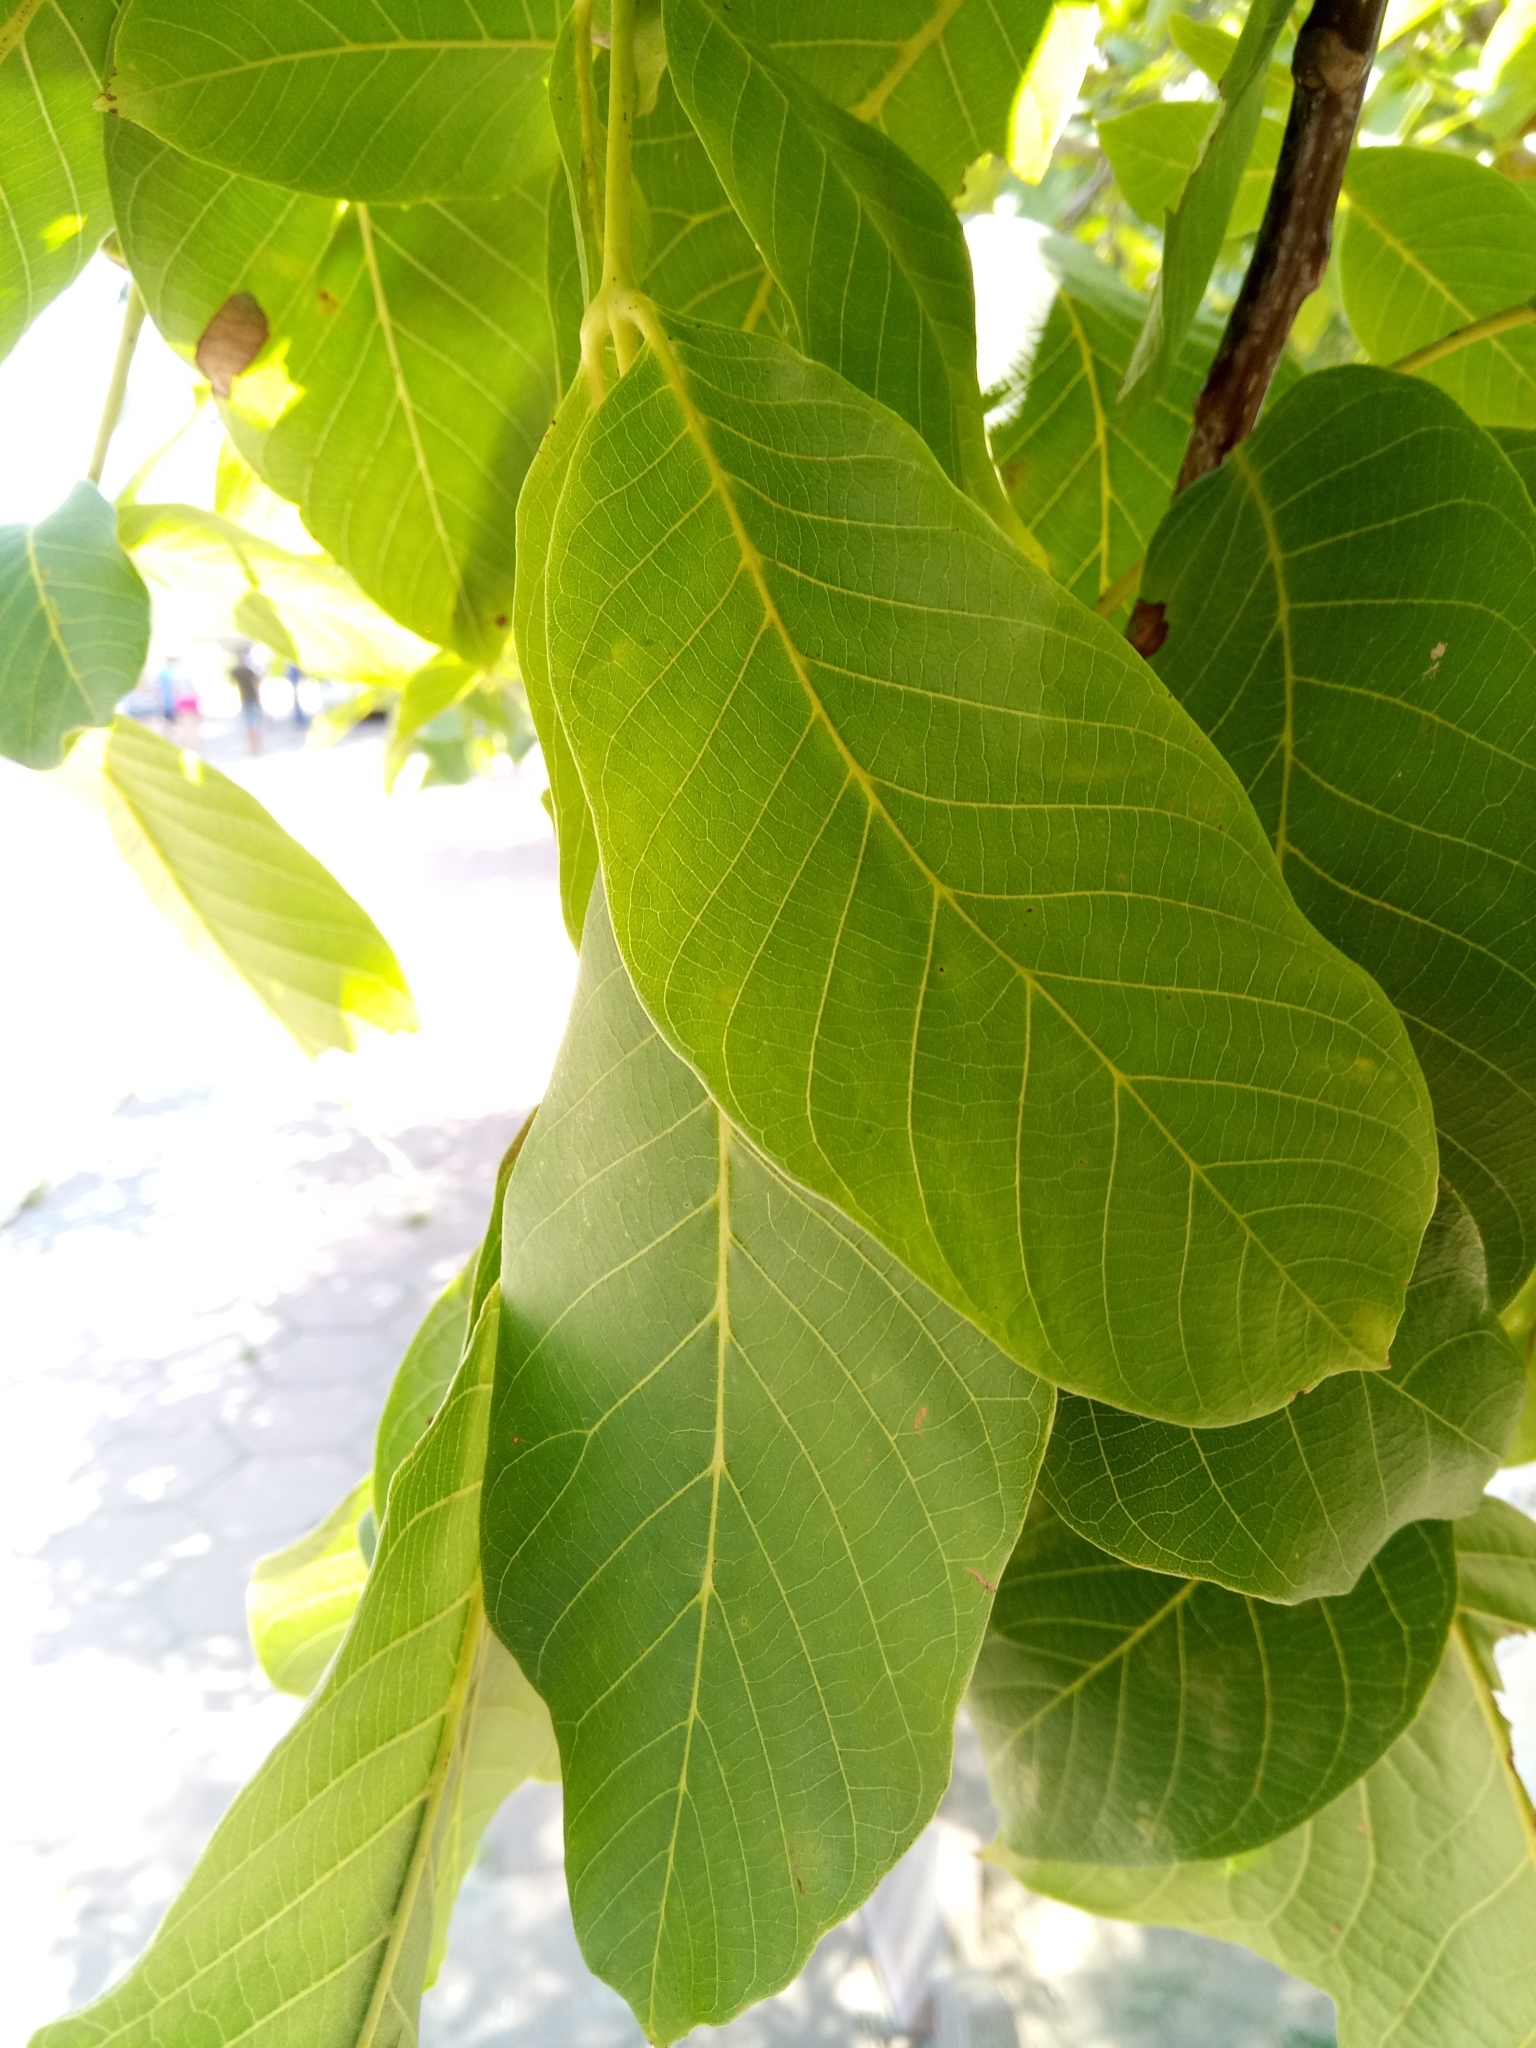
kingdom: Plantae
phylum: Tracheophyta
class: Magnoliopsida
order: Fagales
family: Juglandaceae
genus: Juglans
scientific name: Juglans regia
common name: Walnut
